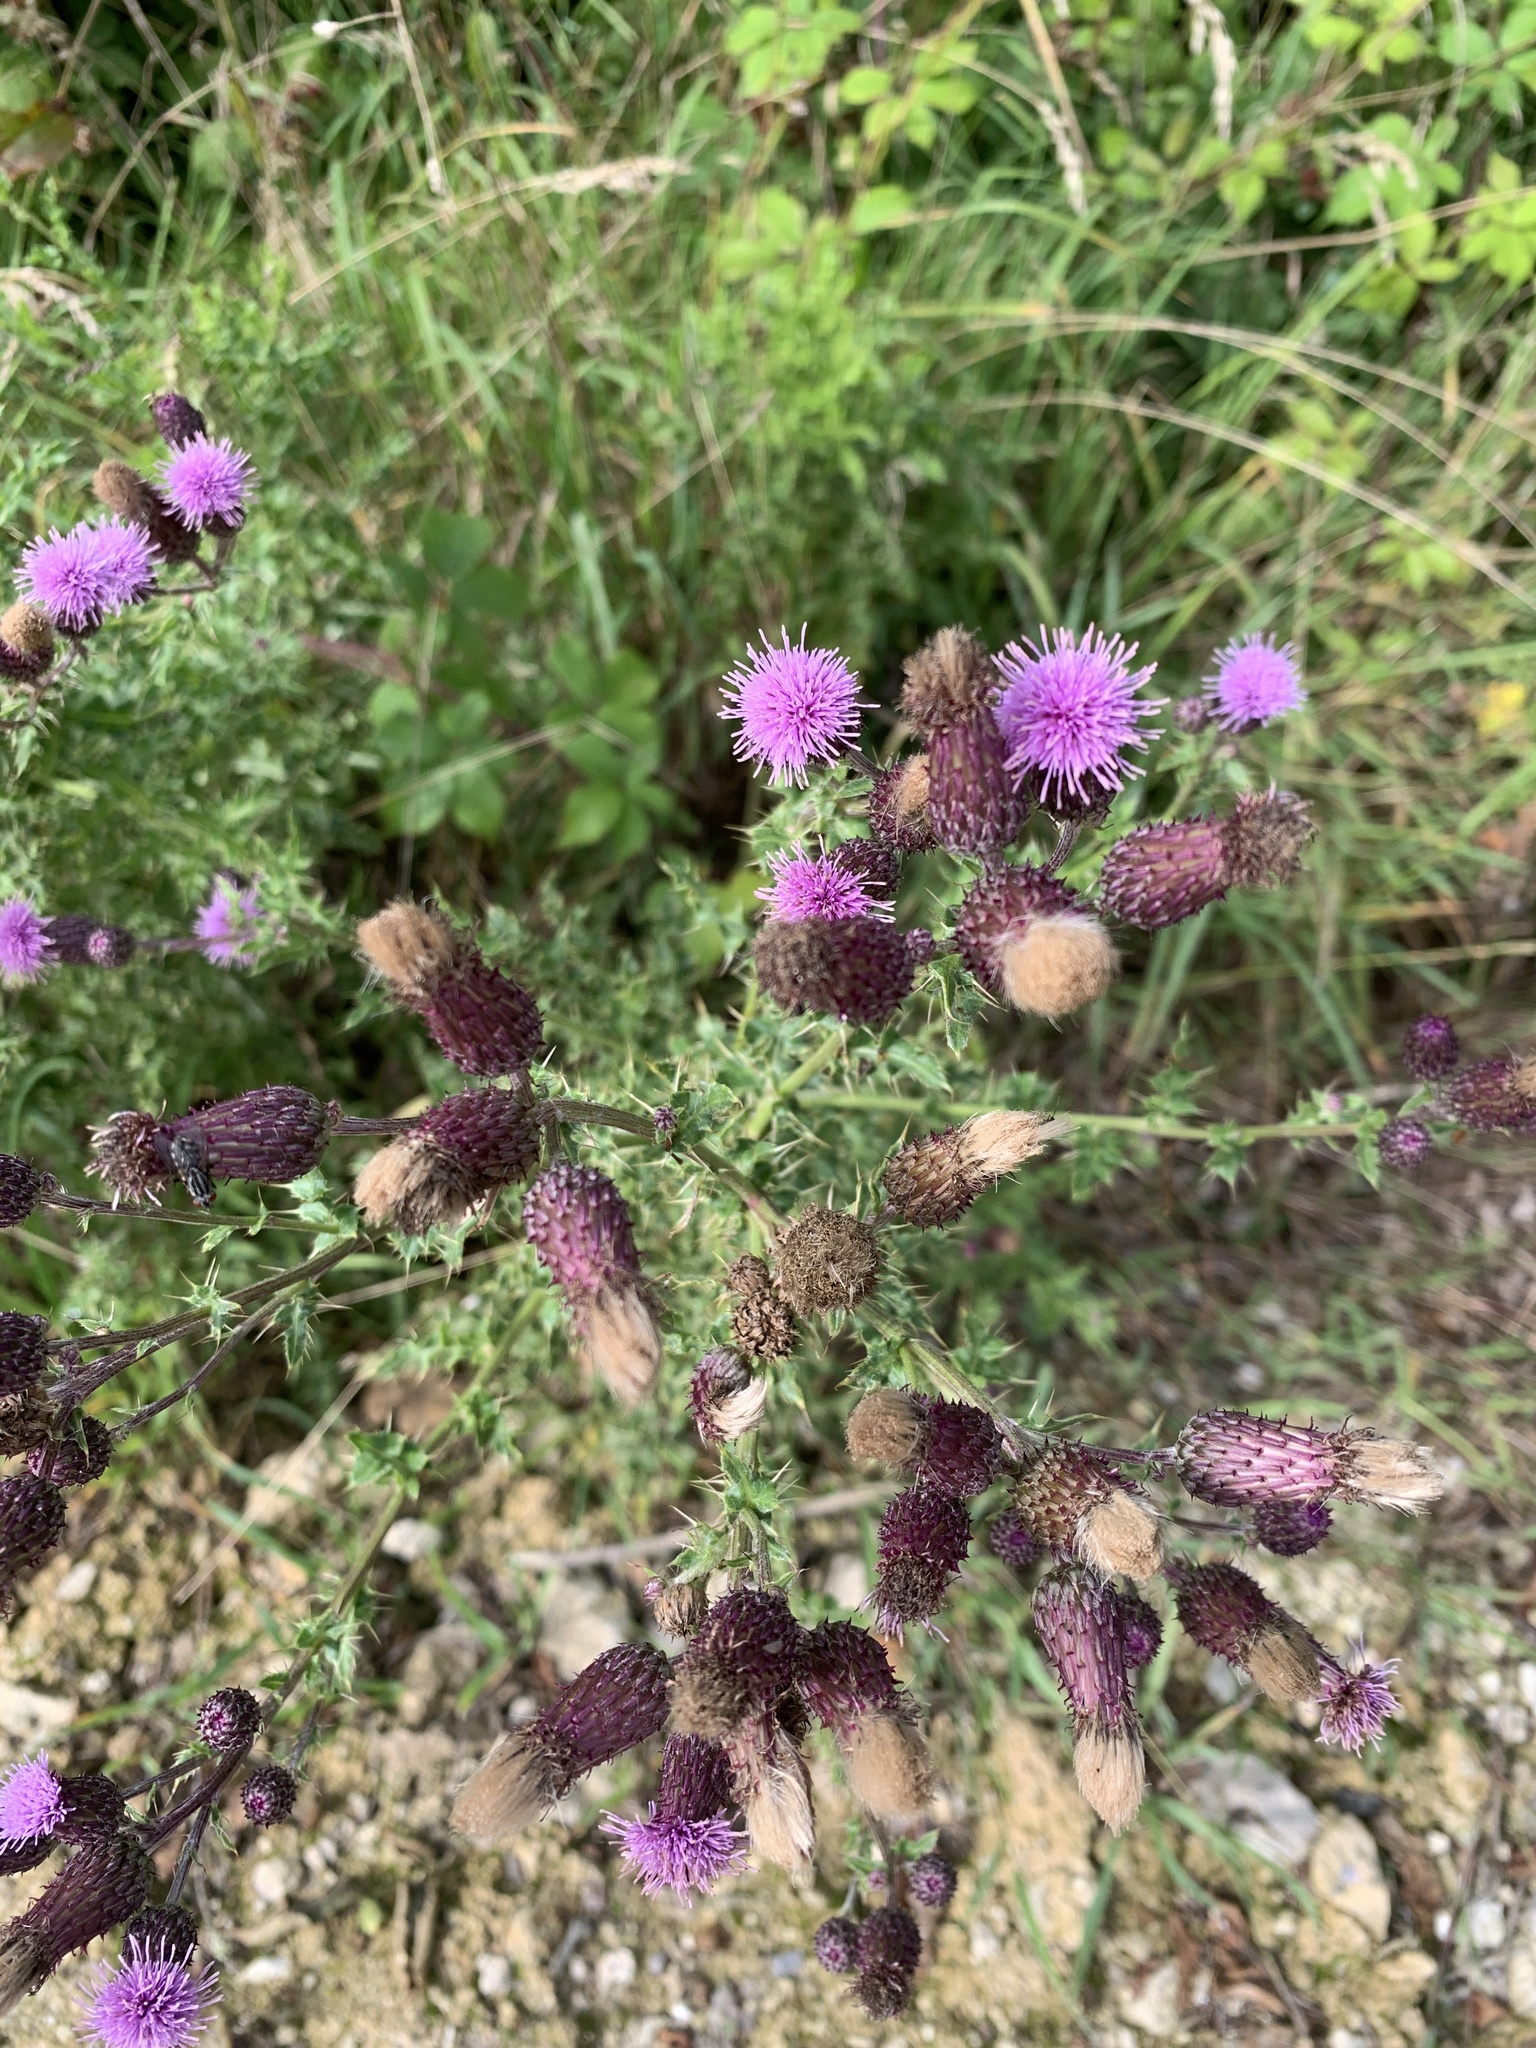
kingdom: Plantae
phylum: Tracheophyta
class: Magnoliopsida
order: Asterales
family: Asteraceae
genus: Cirsium
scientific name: Cirsium arvense
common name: Creeping thistle
